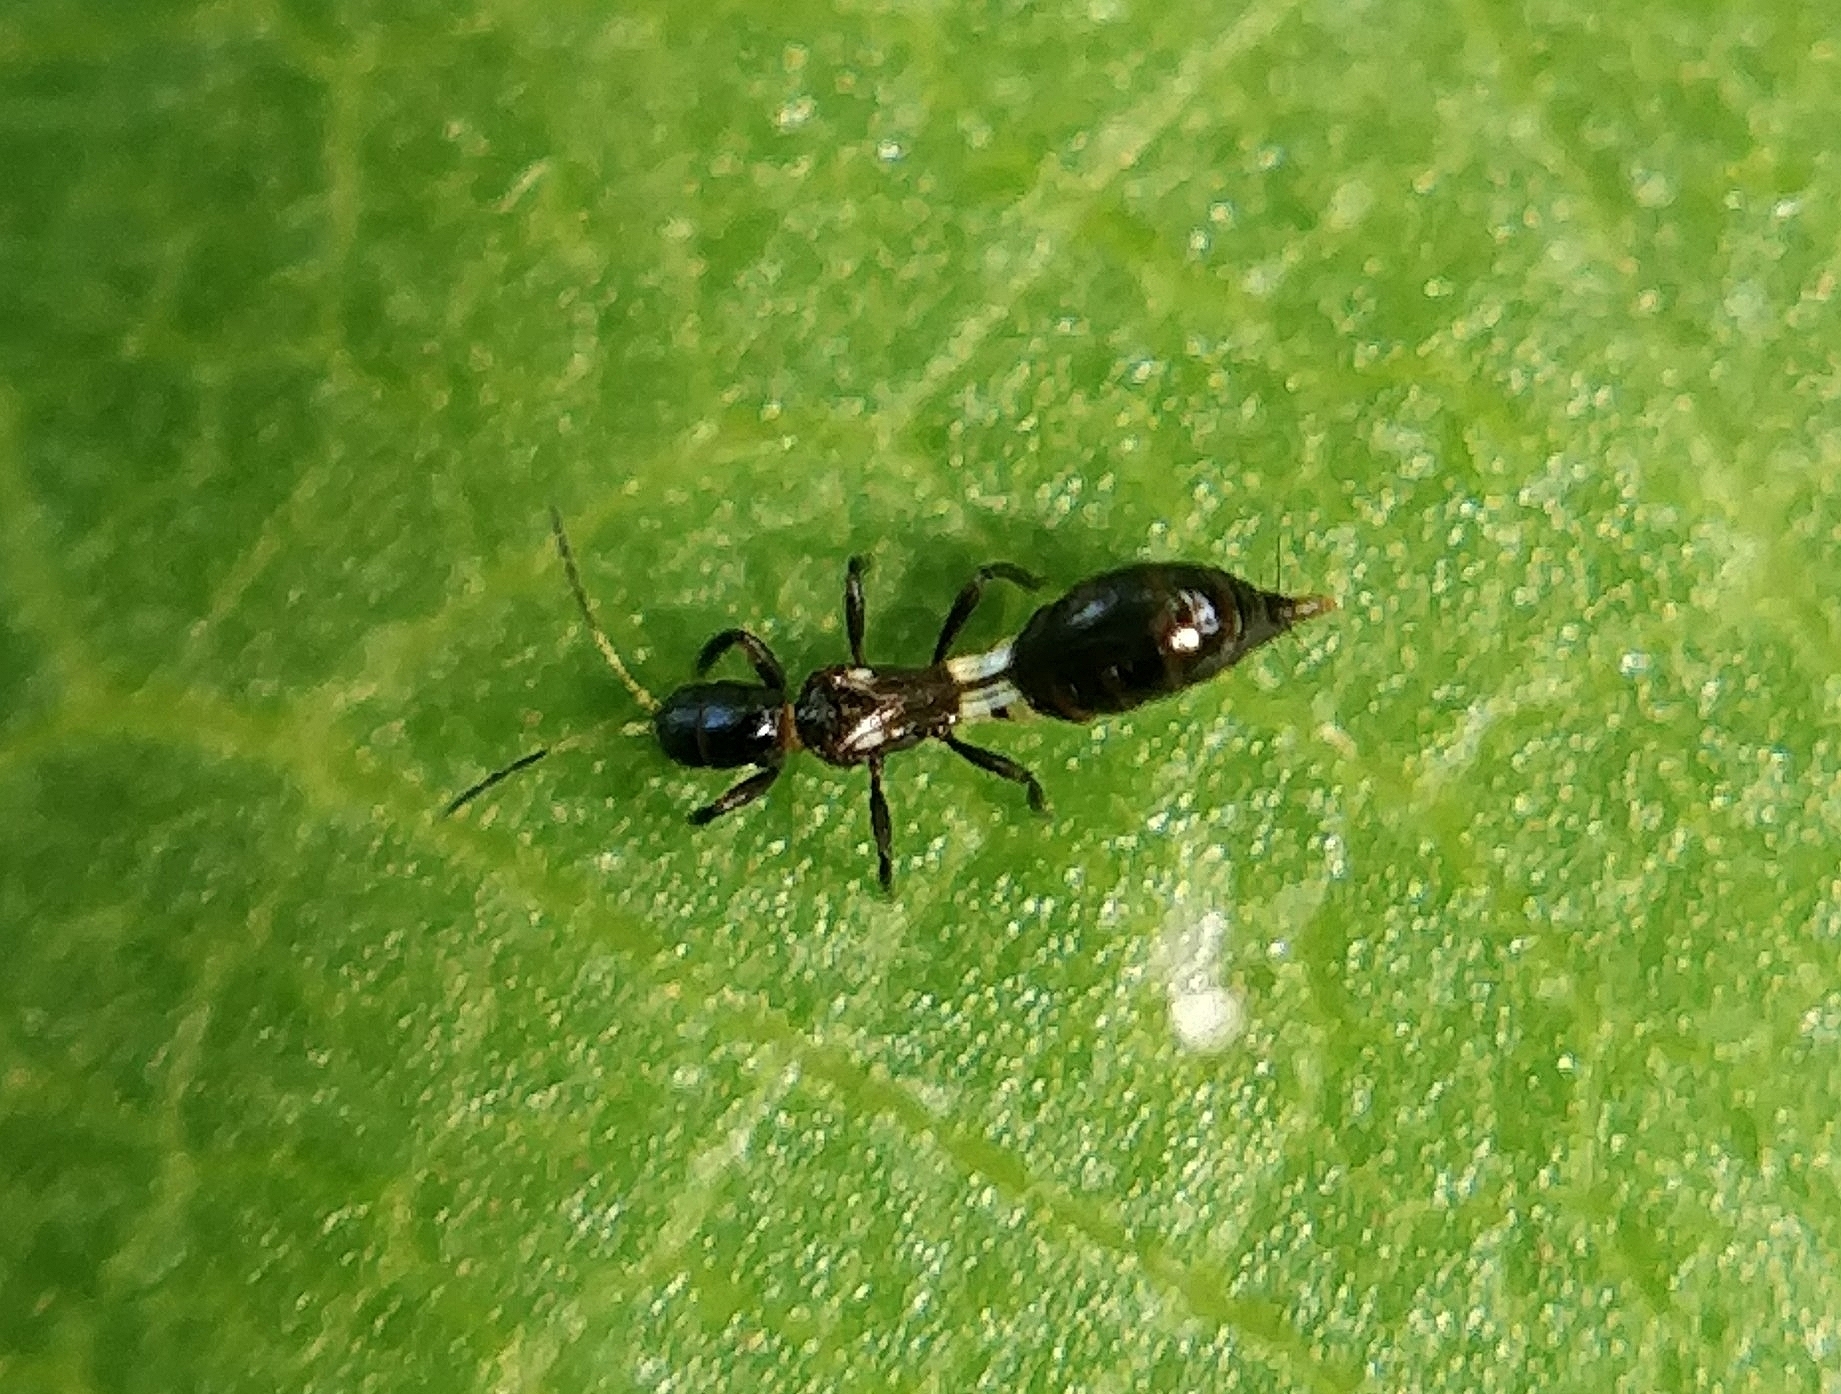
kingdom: Animalia
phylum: Arthropoda
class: Insecta
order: Thysanoptera
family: Aeolothripidae
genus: Franklinothrips
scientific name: Franklinothrips vespiformis
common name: Banded thrip
